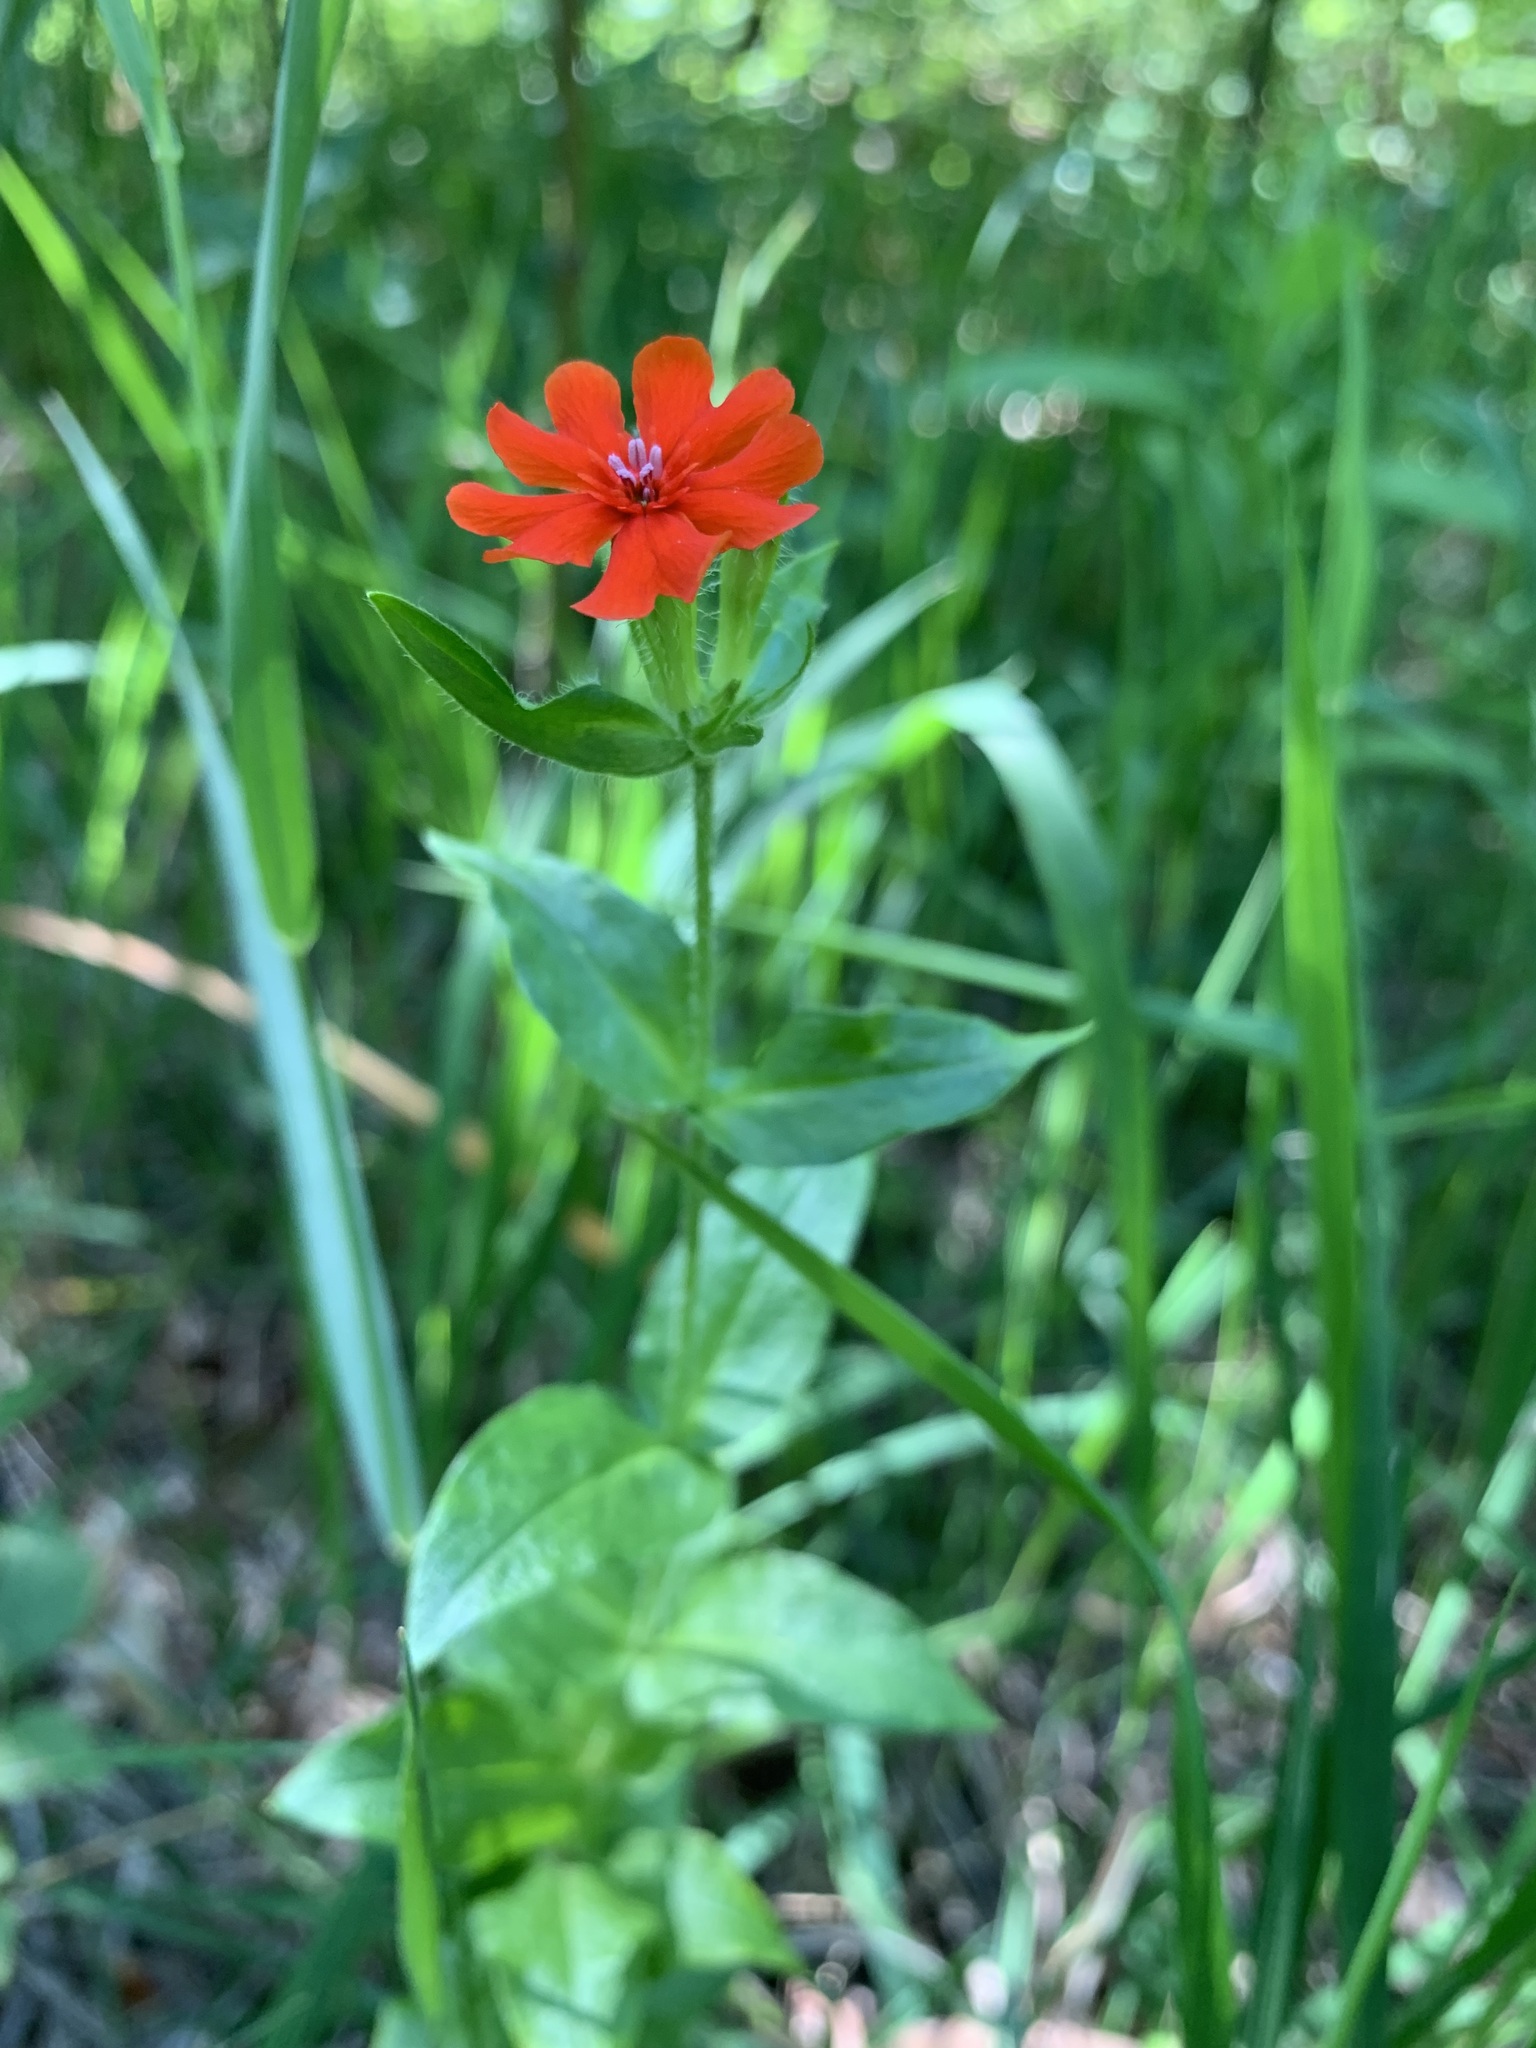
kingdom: Plantae
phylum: Tracheophyta
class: Magnoliopsida
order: Caryophyllales
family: Caryophyllaceae
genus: Silene
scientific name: Silene chalcedonica
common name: Maltese-cross
